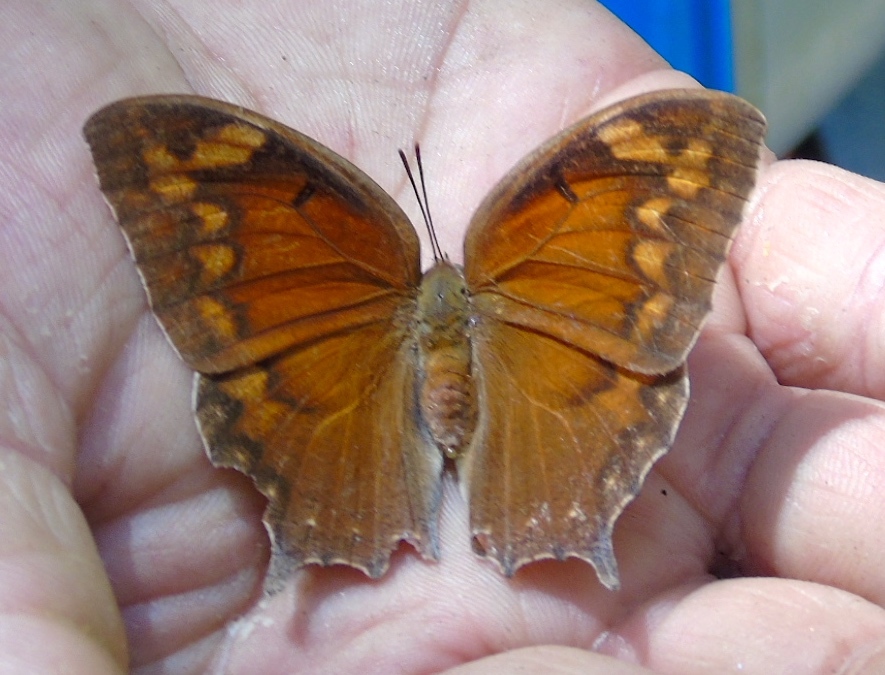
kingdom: Animalia
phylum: Arthropoda
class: Insecta
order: Lepidoptera
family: Nymphalidae
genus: Anaea
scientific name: Anaea aidea
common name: Tropical leafwing
